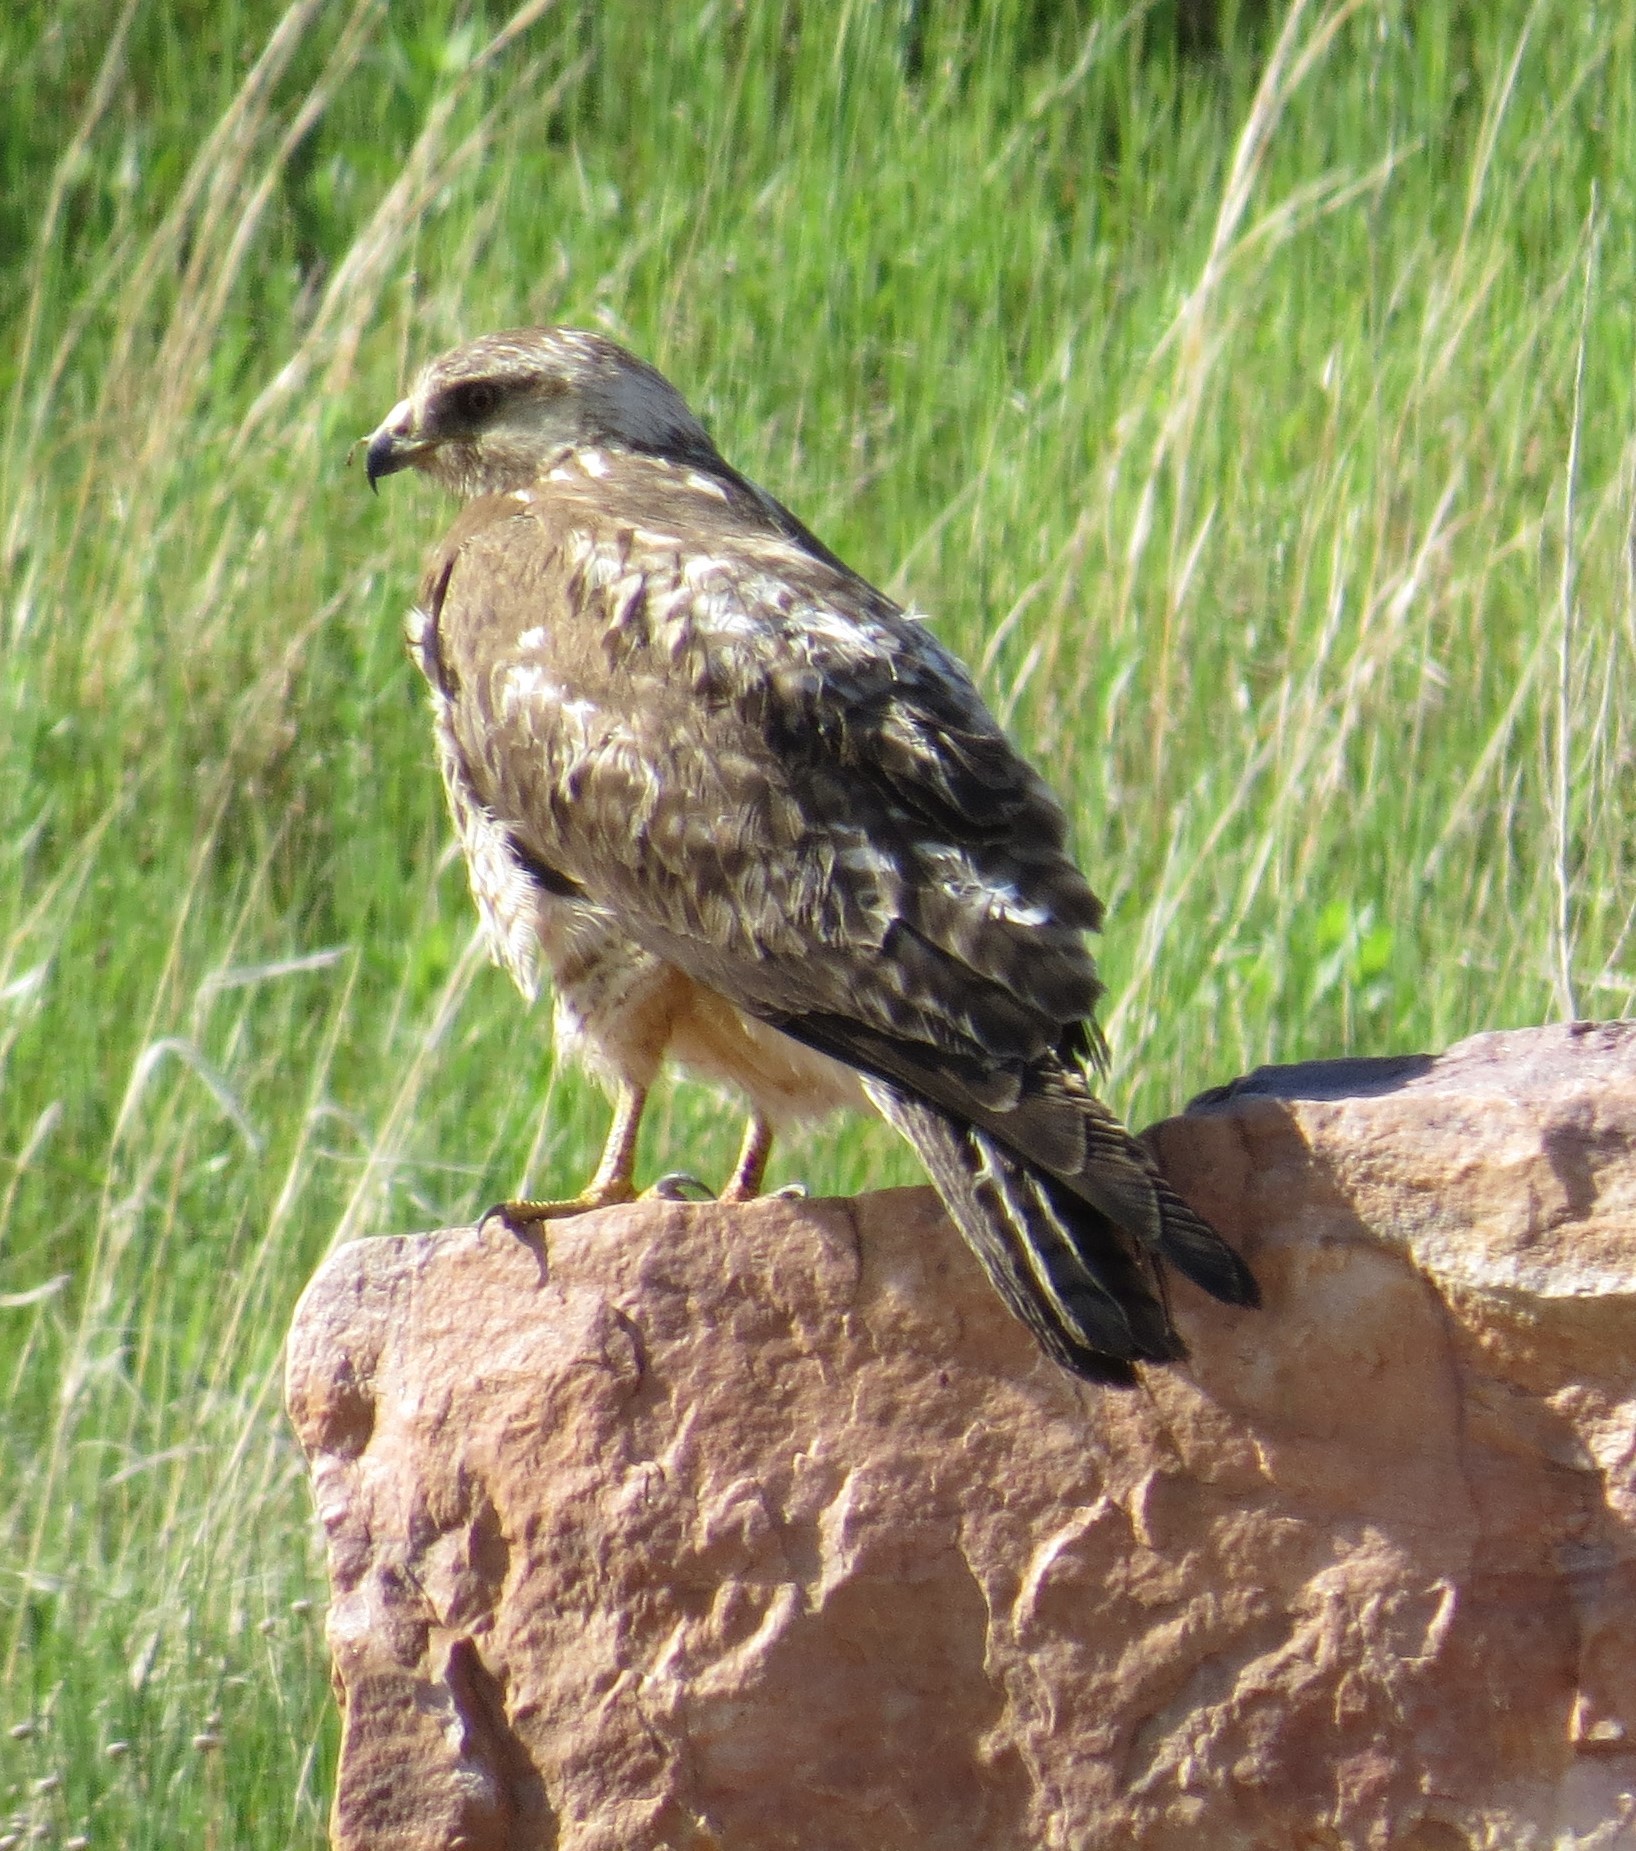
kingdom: Animalia
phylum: Chordata
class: Aves
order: Accipitriformes
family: Accipitridae
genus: Buteo
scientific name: Buteo swainsoni
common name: Swainson's hawk
